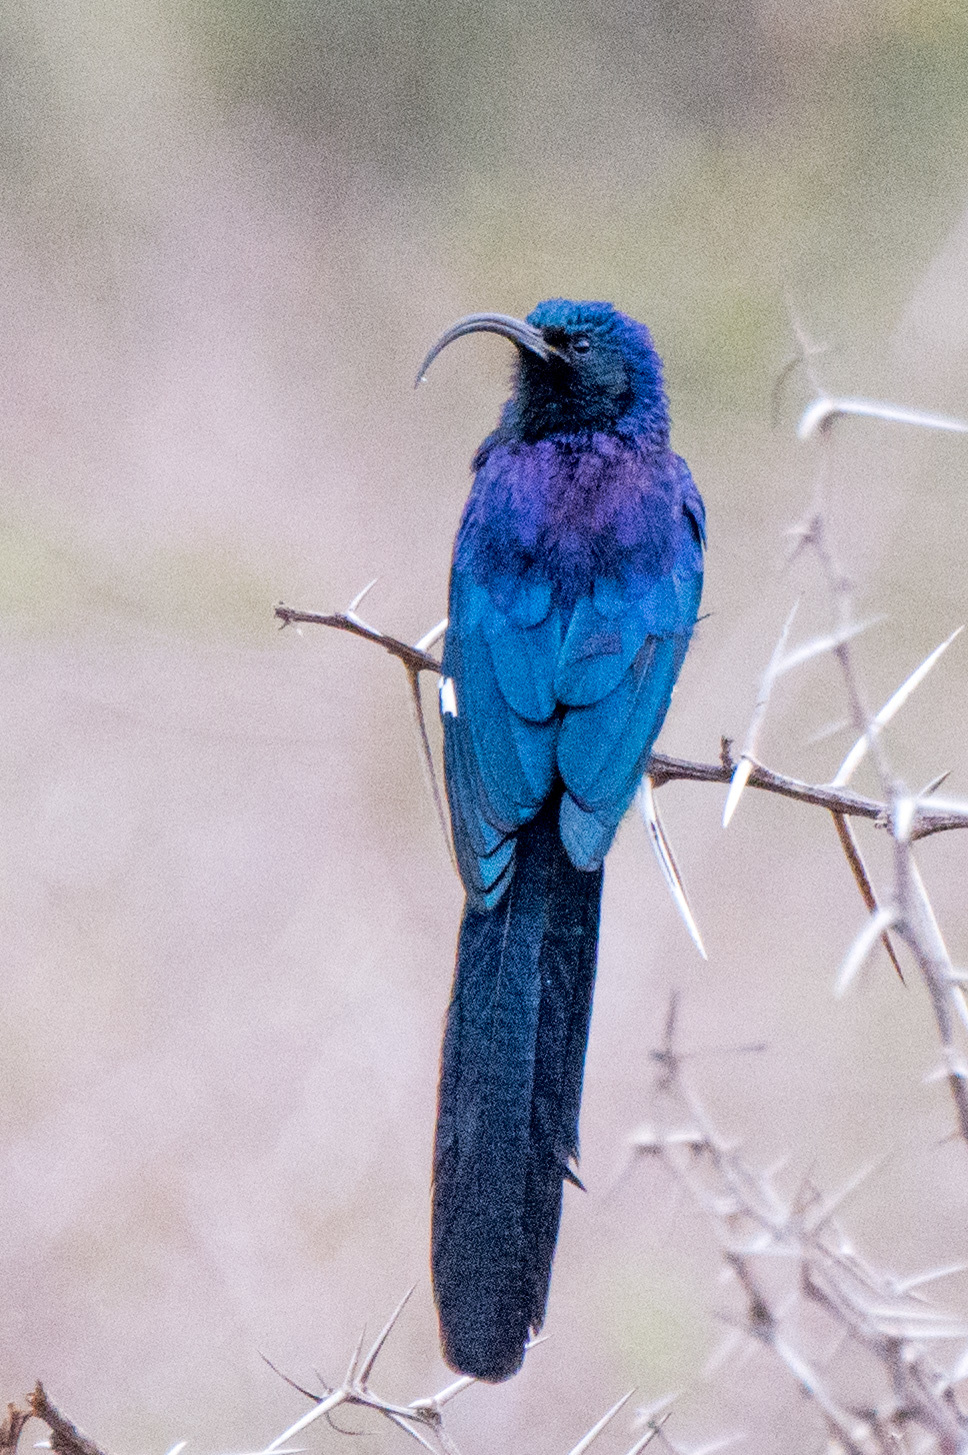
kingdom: Animalia
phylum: Chordata
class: Aves
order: Bucerotiformes
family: Phoeniculidae
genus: Rhinopomastus
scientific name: Rhinopomastus cyanomelas
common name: Common scimitarbill
